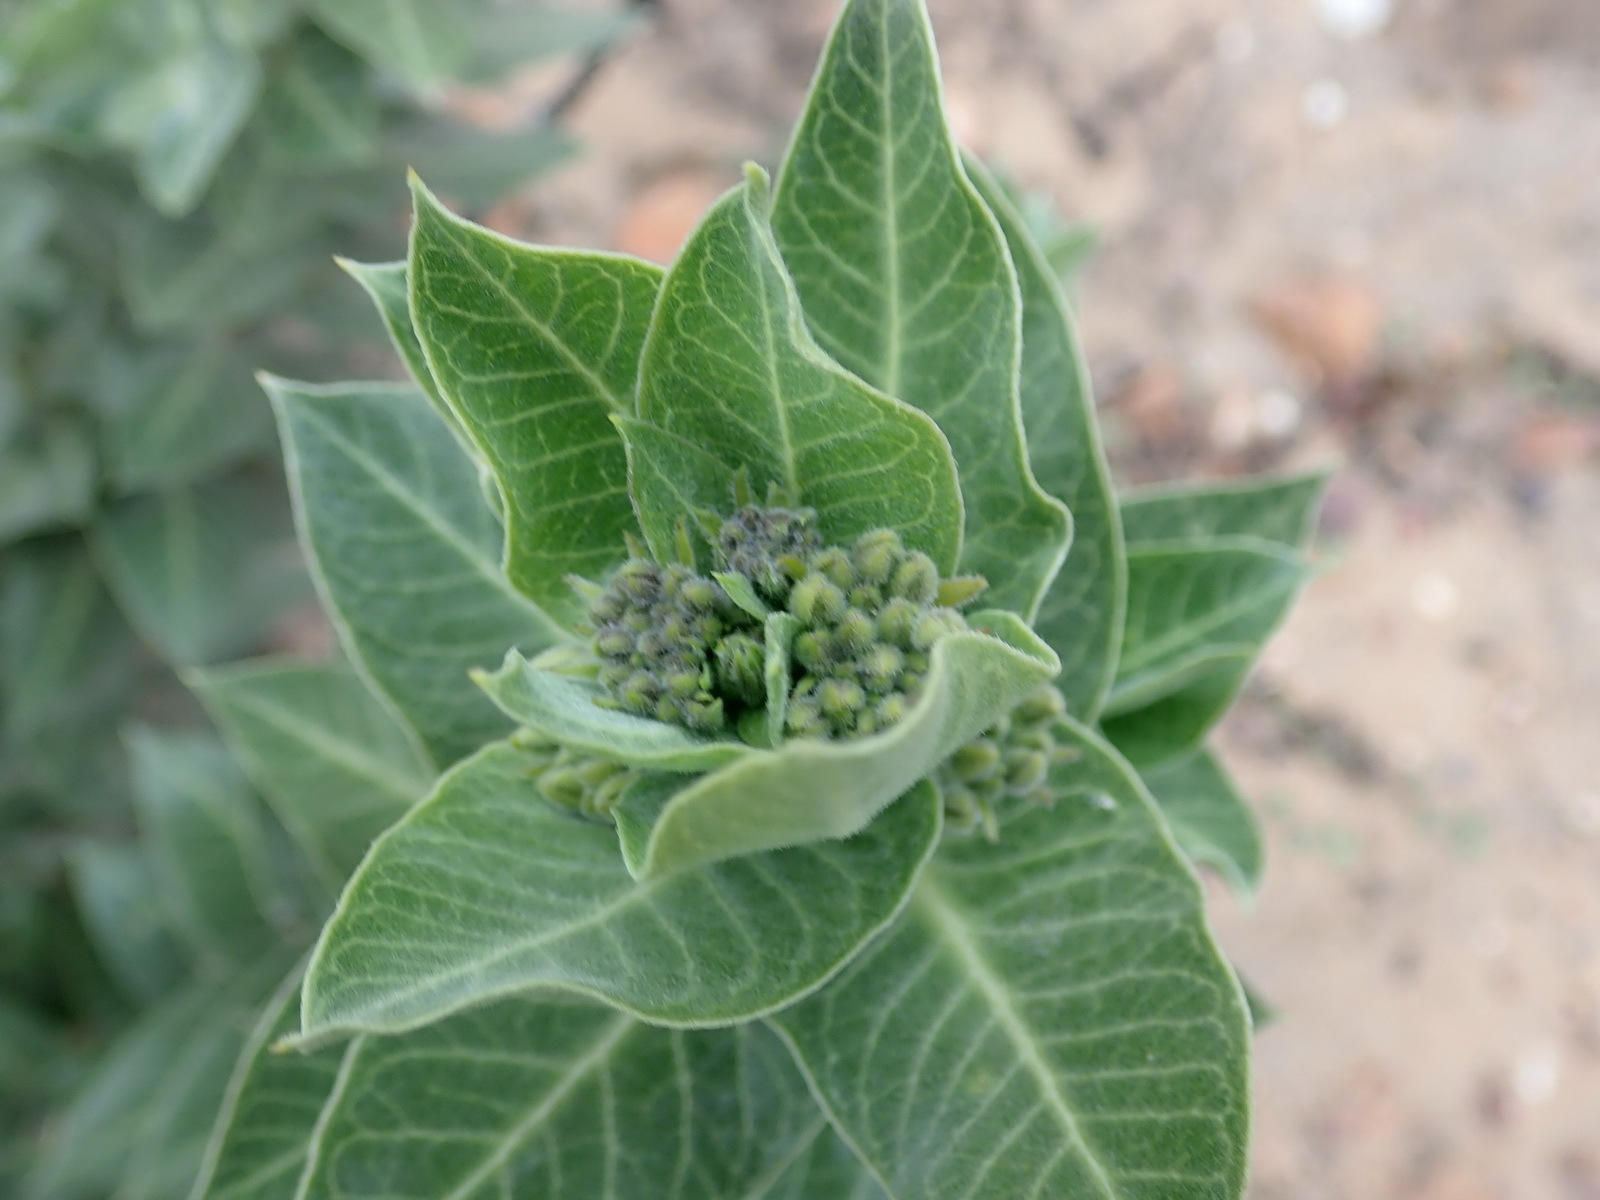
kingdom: Plantae
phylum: Tracheophyta
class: Magnoliopsida
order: Gentianales
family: Apocynaceae
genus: Gomphocarpus
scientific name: Gomphocarpus cancellatus
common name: Wild cotton
